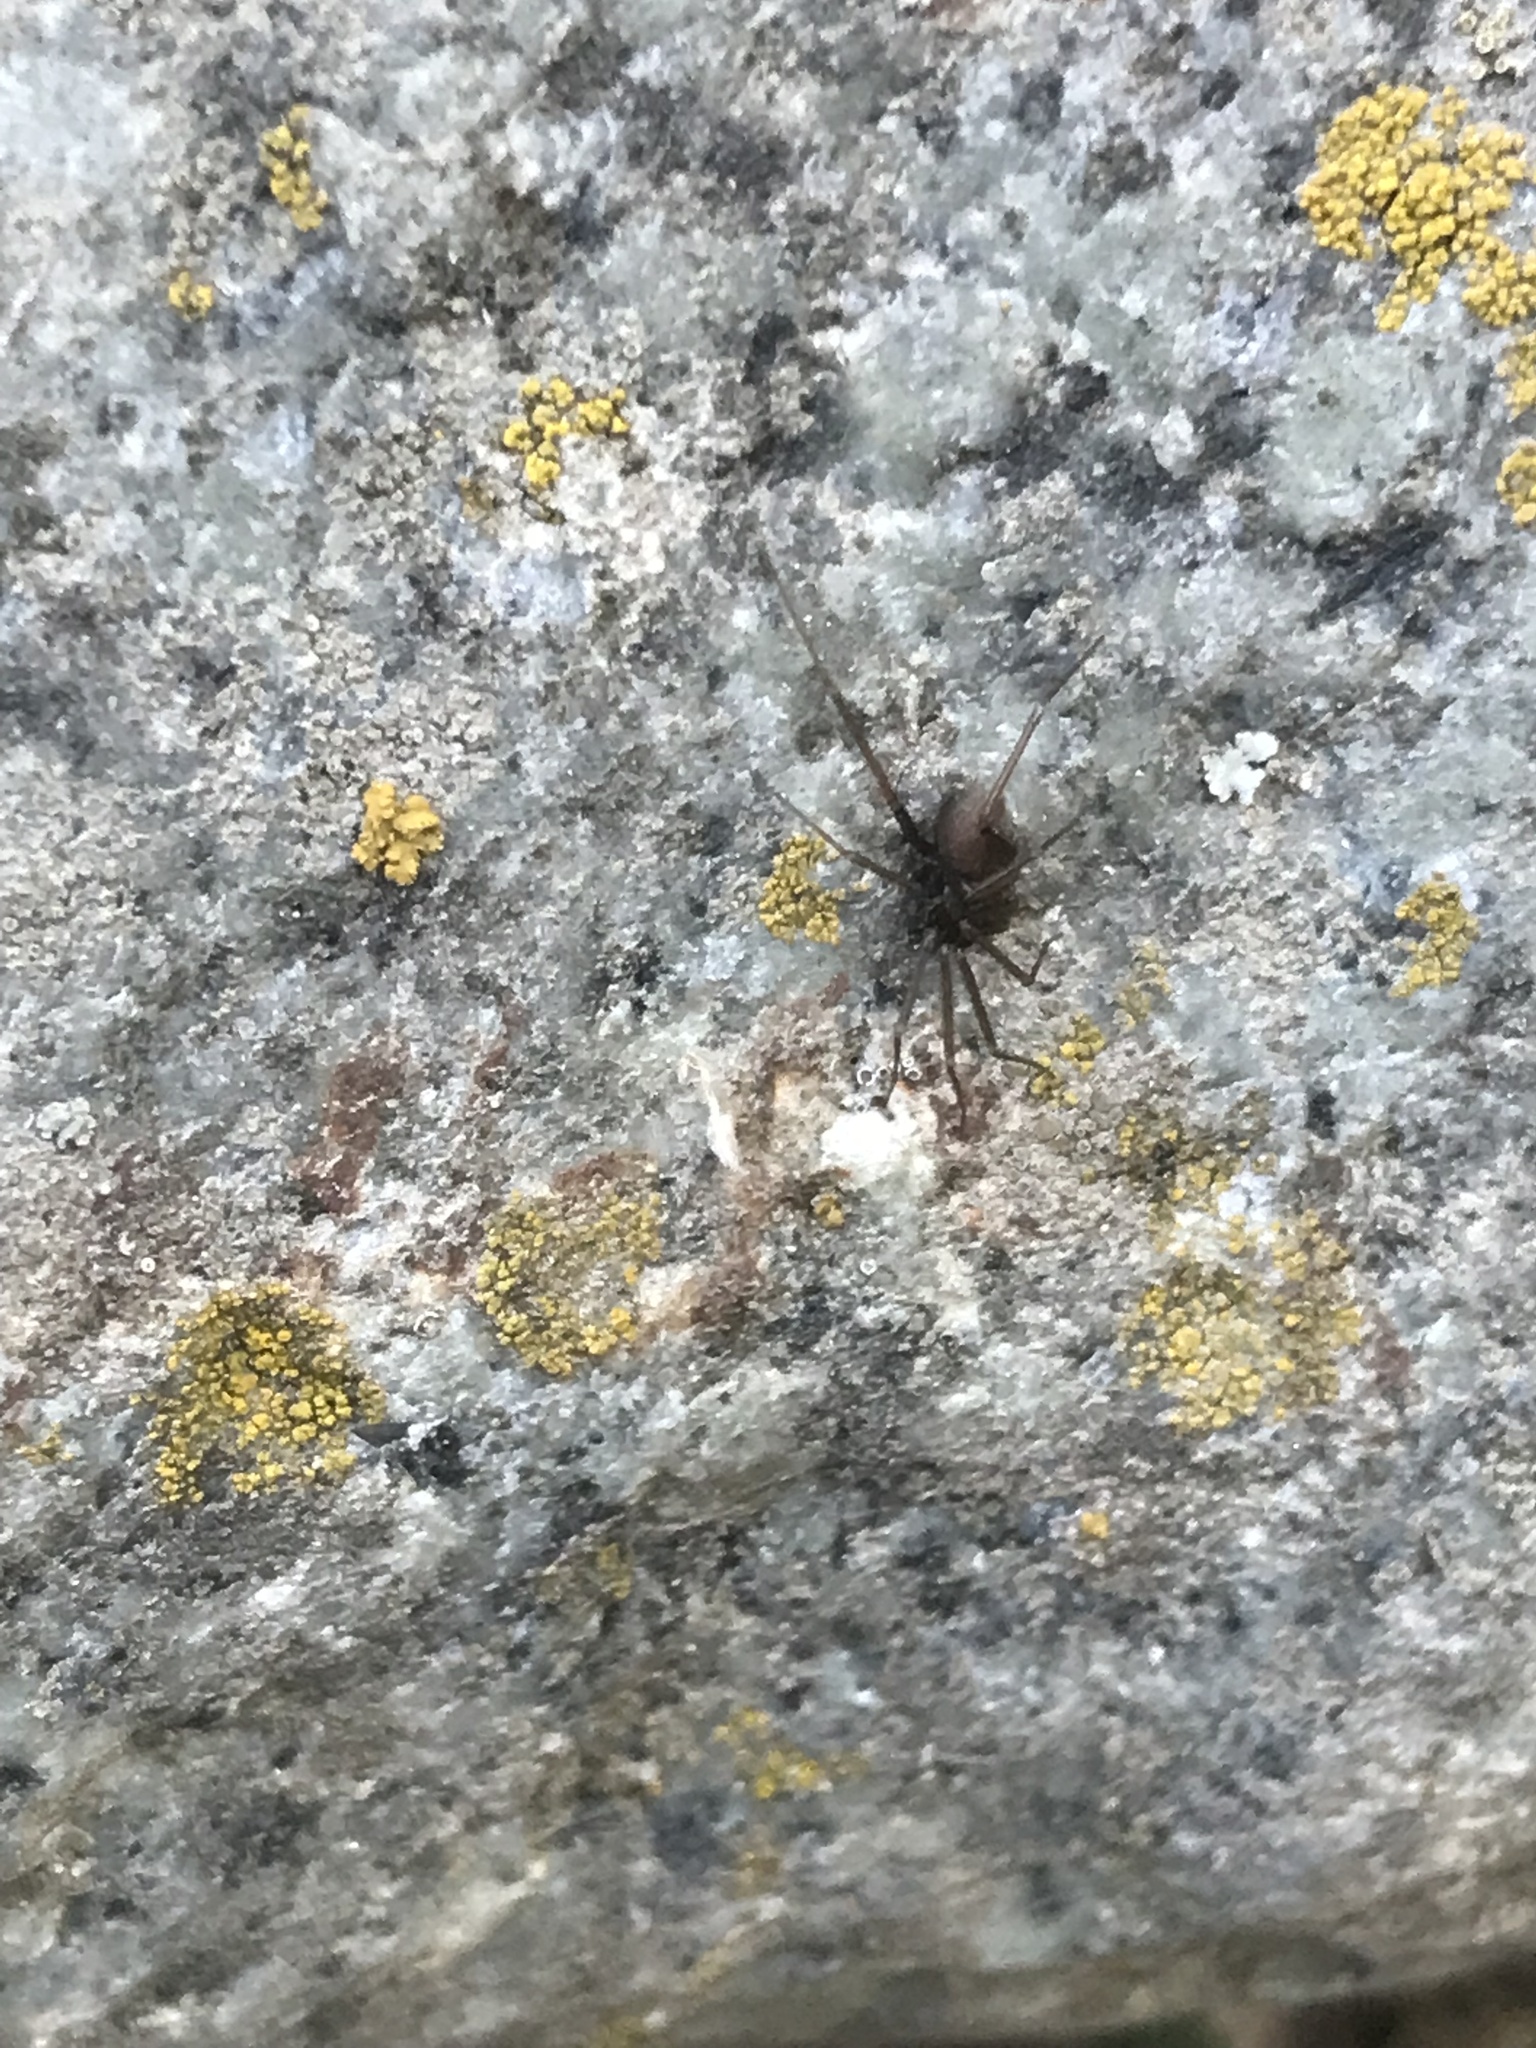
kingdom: Animalia
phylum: Arthropoda
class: Arachnida
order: Araneae
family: Pholcidae
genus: Pholcophora
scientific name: Pholcophora americana
